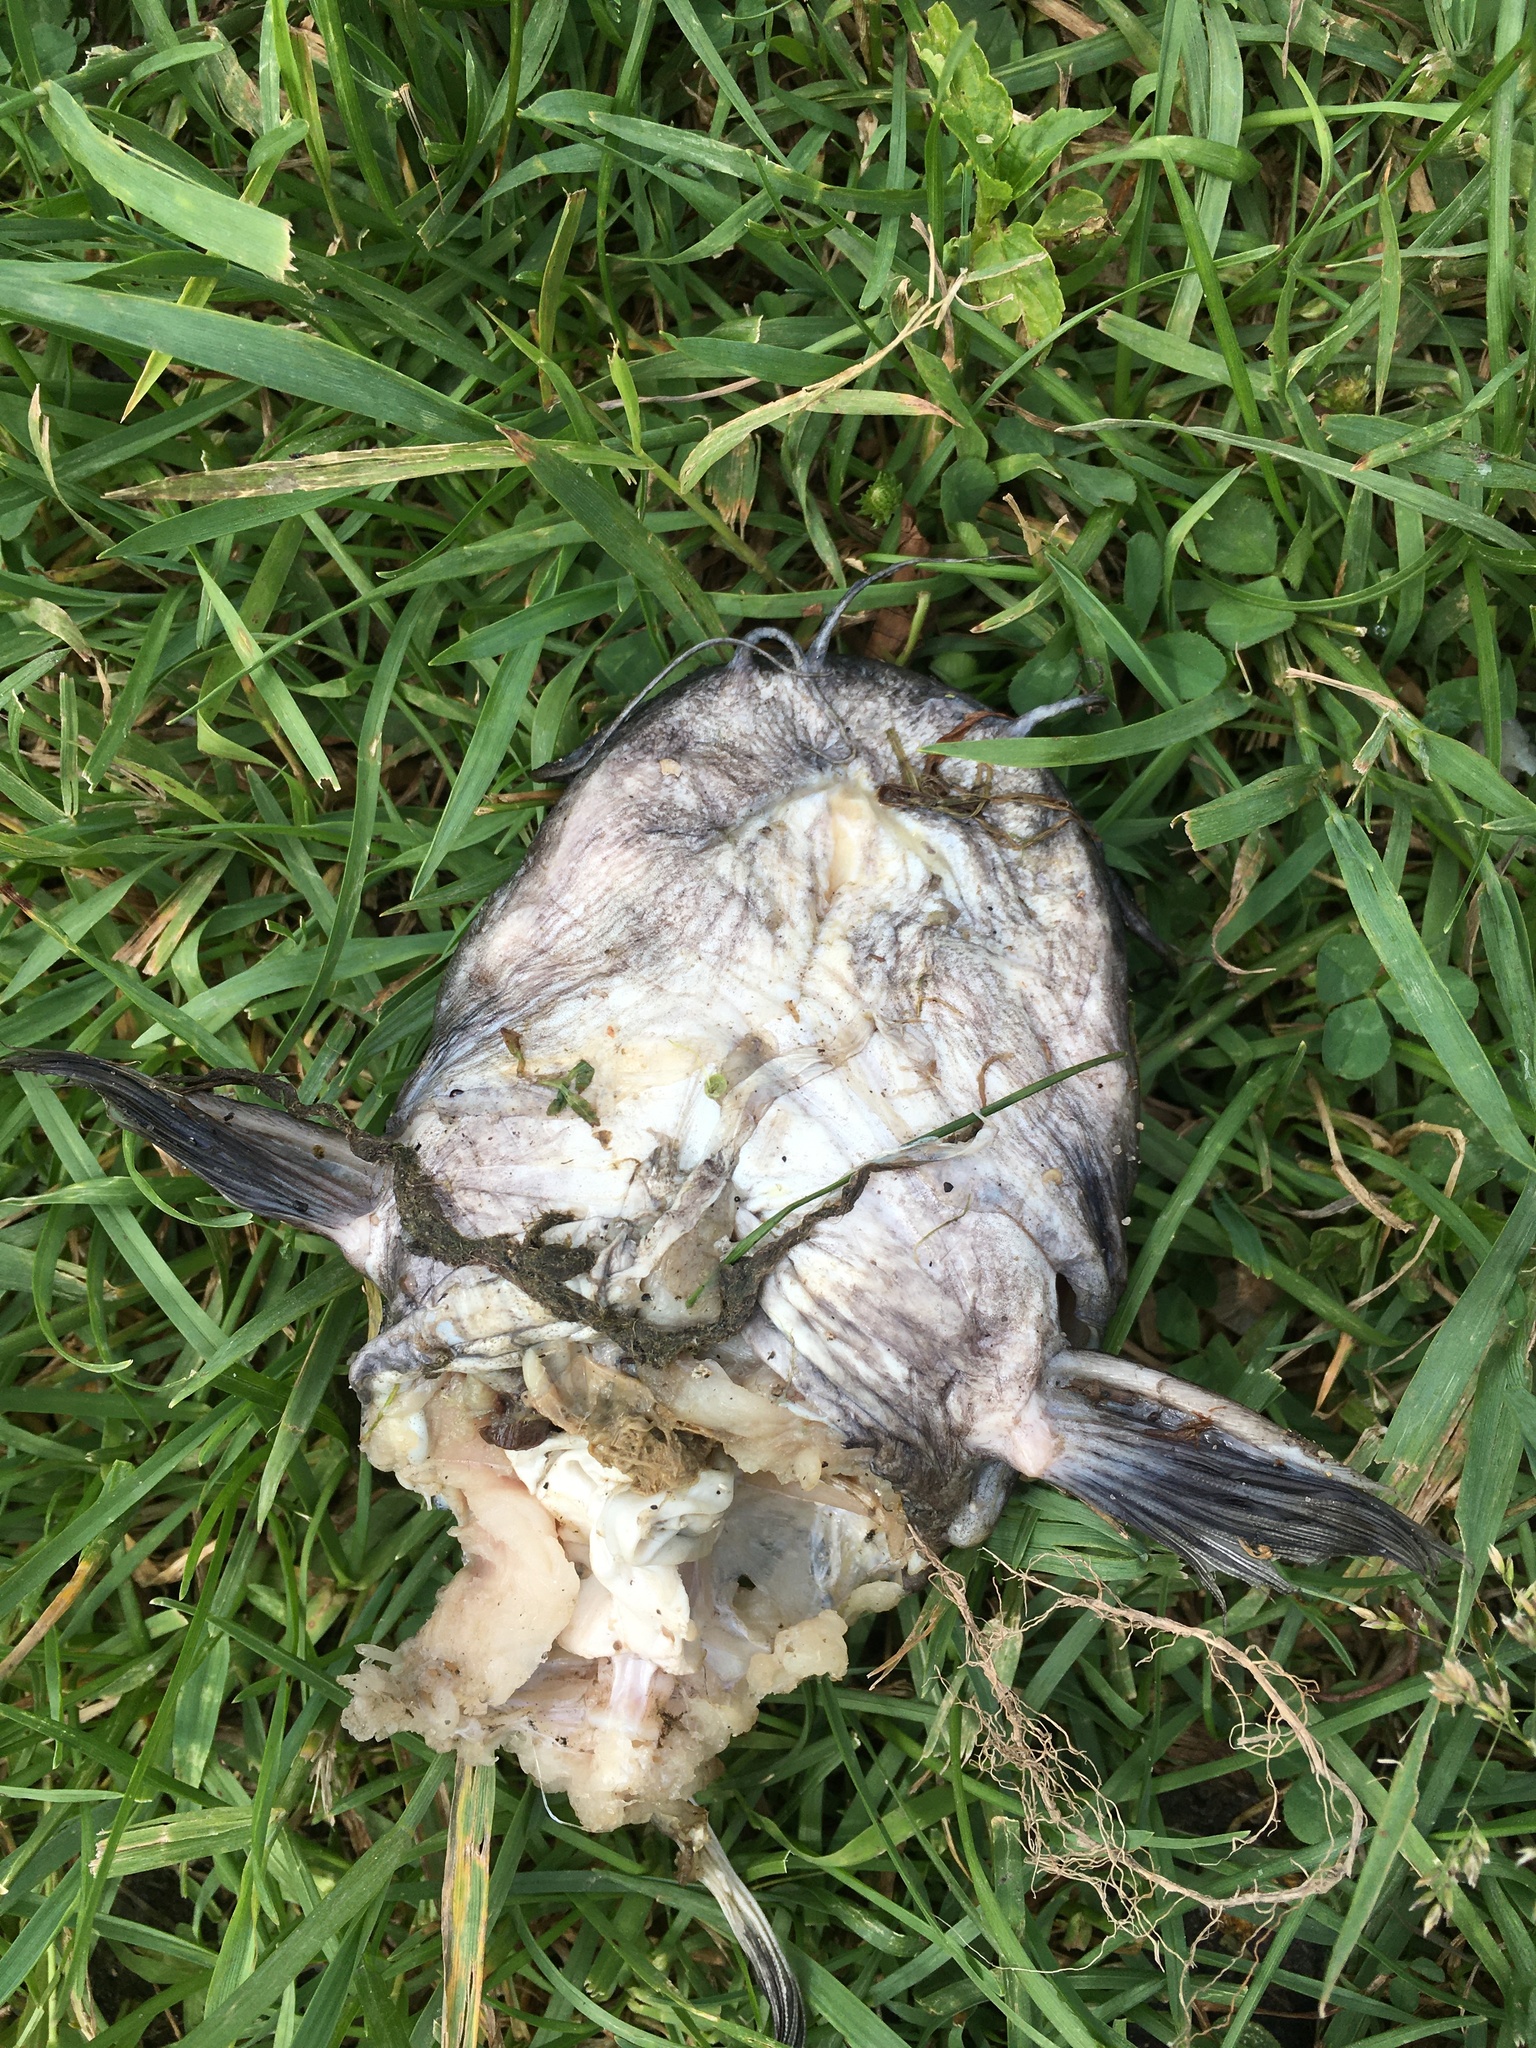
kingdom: Animalia
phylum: Chordata
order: Siluriformes
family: Ictaluridae
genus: Ictalurus
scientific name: Ictalurus punctatus
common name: Channel catfish
